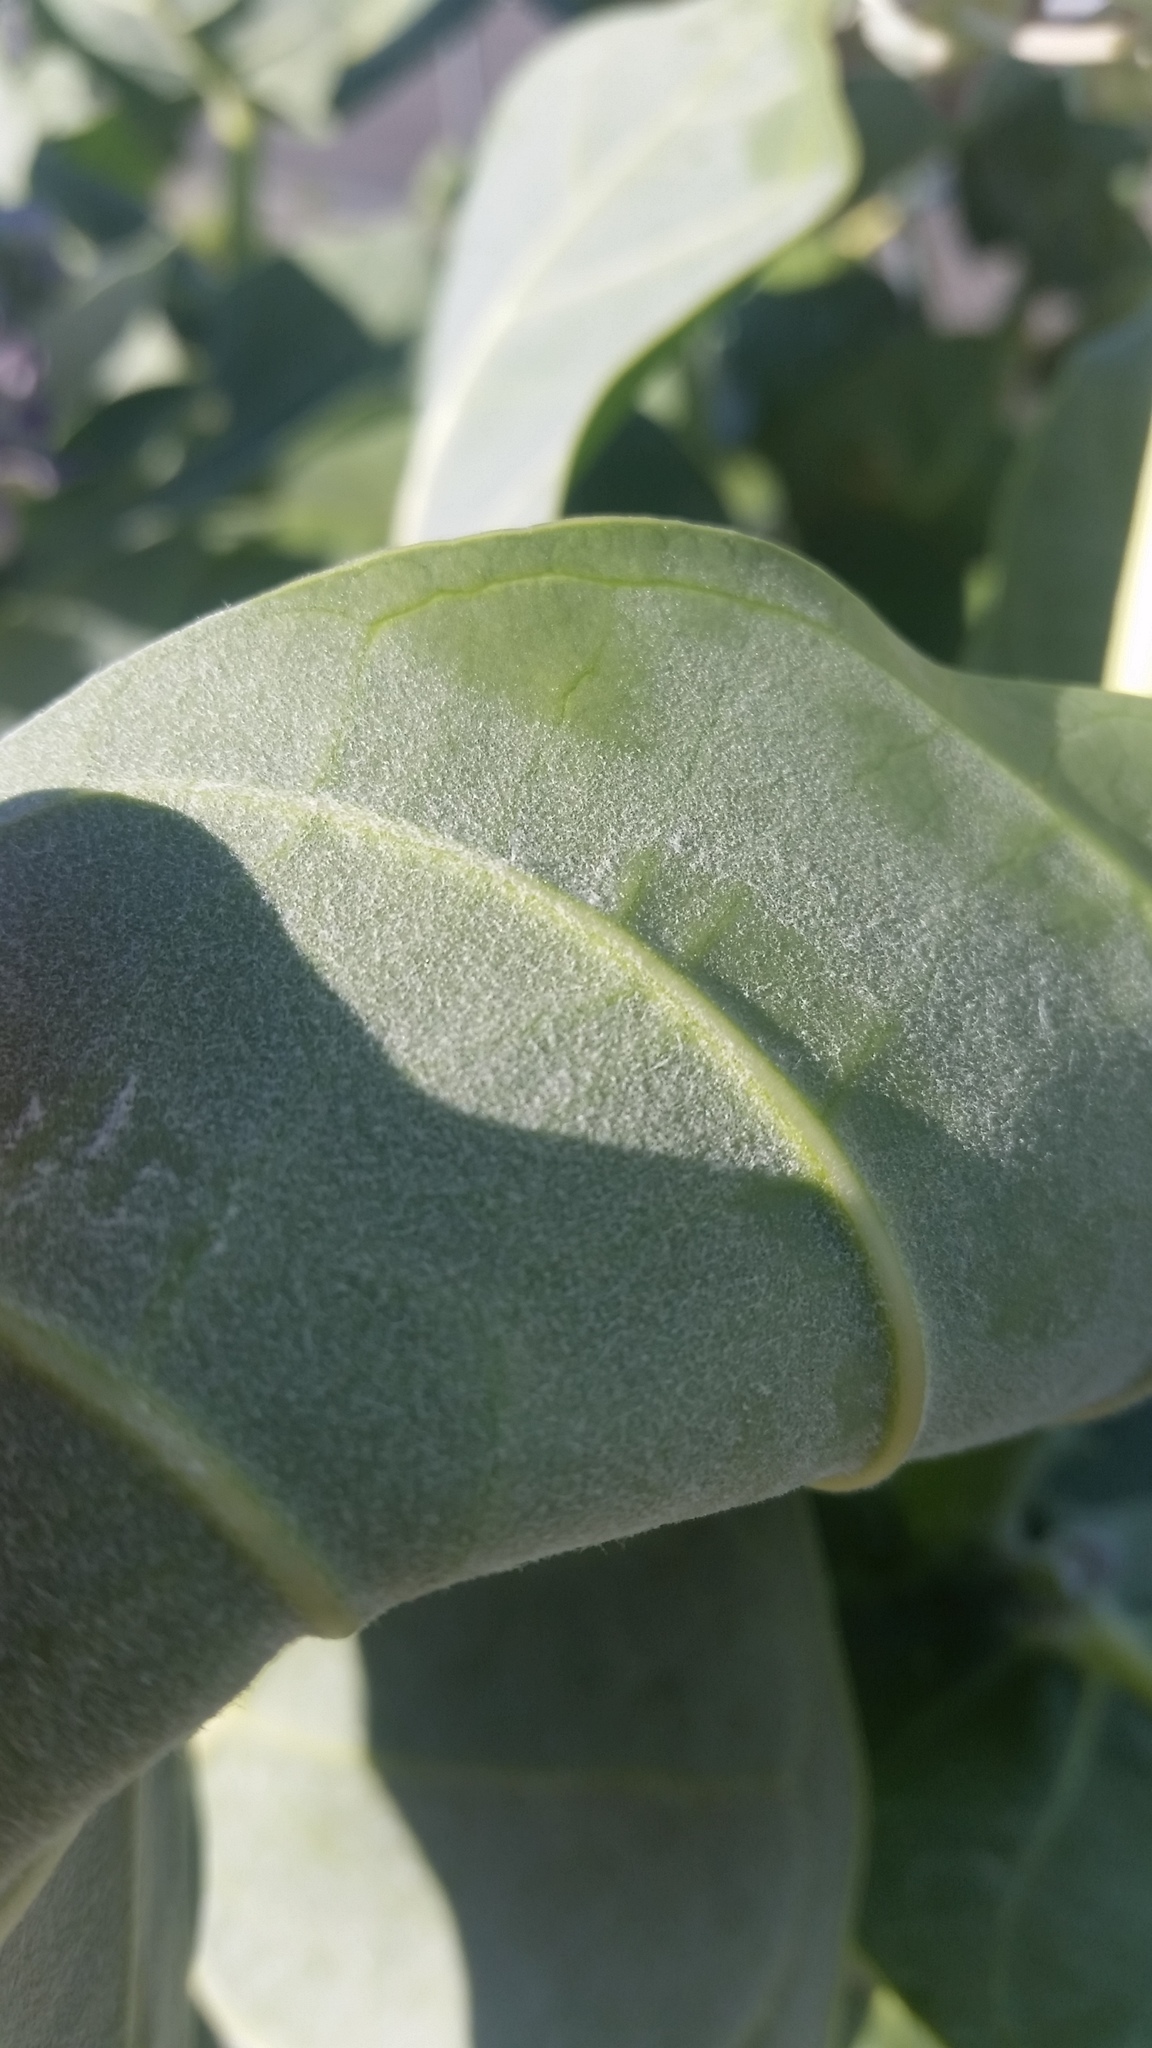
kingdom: Plantae
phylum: Tracheophyta
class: Magnoliopsida
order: Gentianales
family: Apocynaceae
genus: Calotropis
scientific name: Calotropis procera
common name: Roostertree
